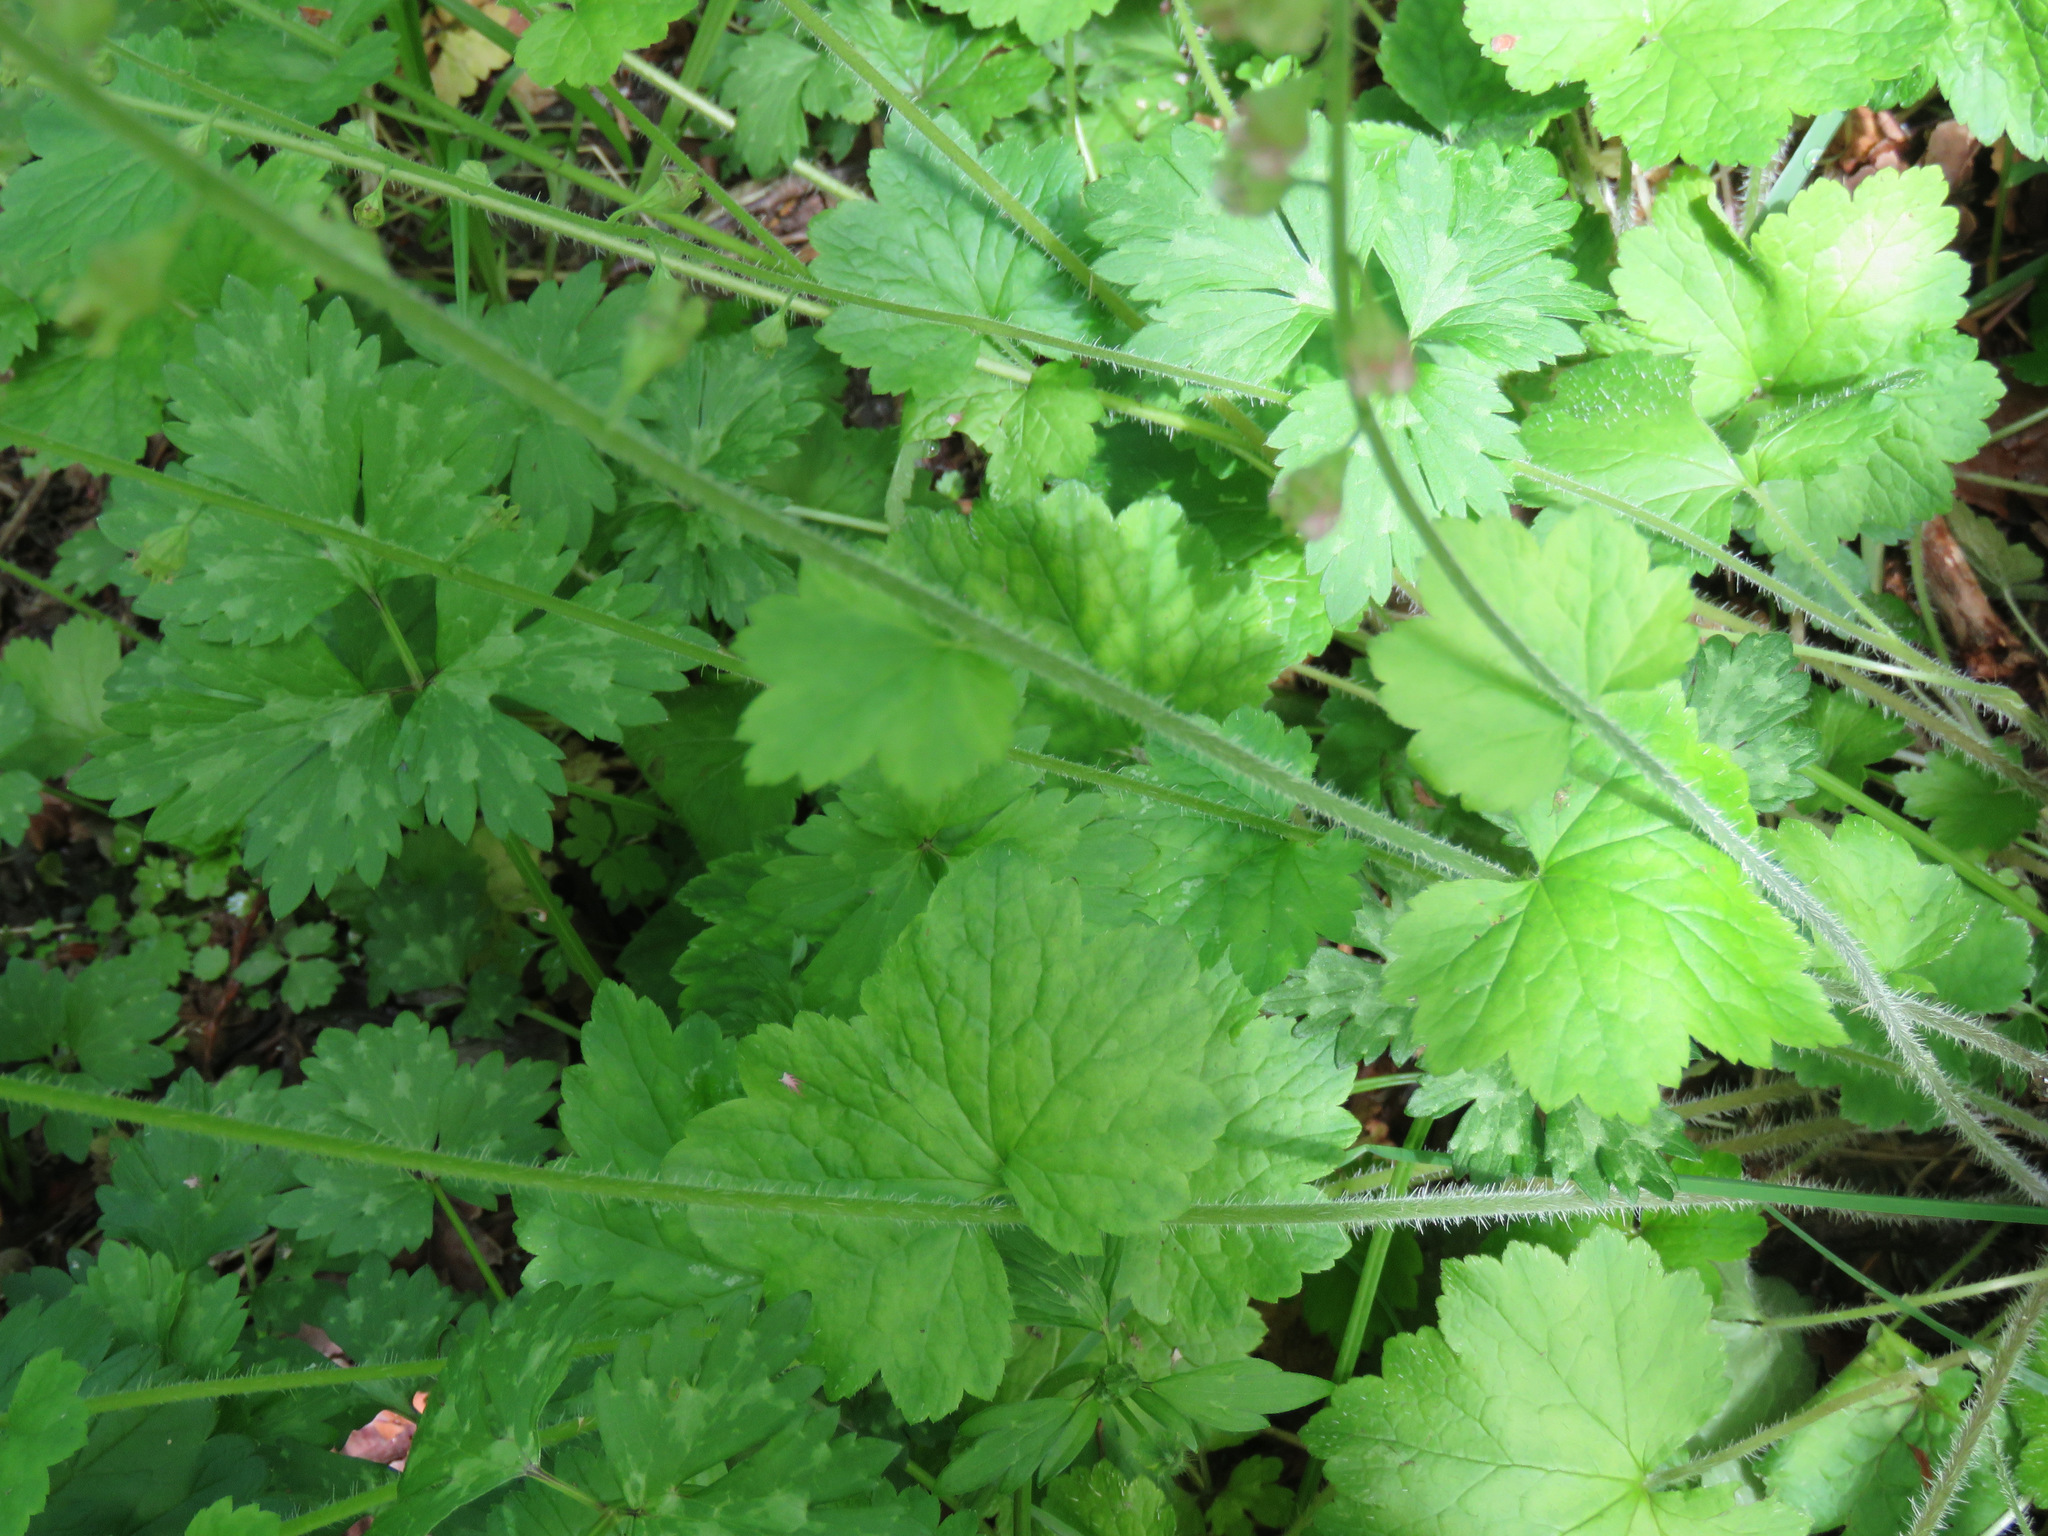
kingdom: Plantae
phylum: Tracheophyta
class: Magnoliopsida
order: Saxifragales
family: Saxifragaceae
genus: Tellima
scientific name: Tellima grandiflora
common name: Fringecups
